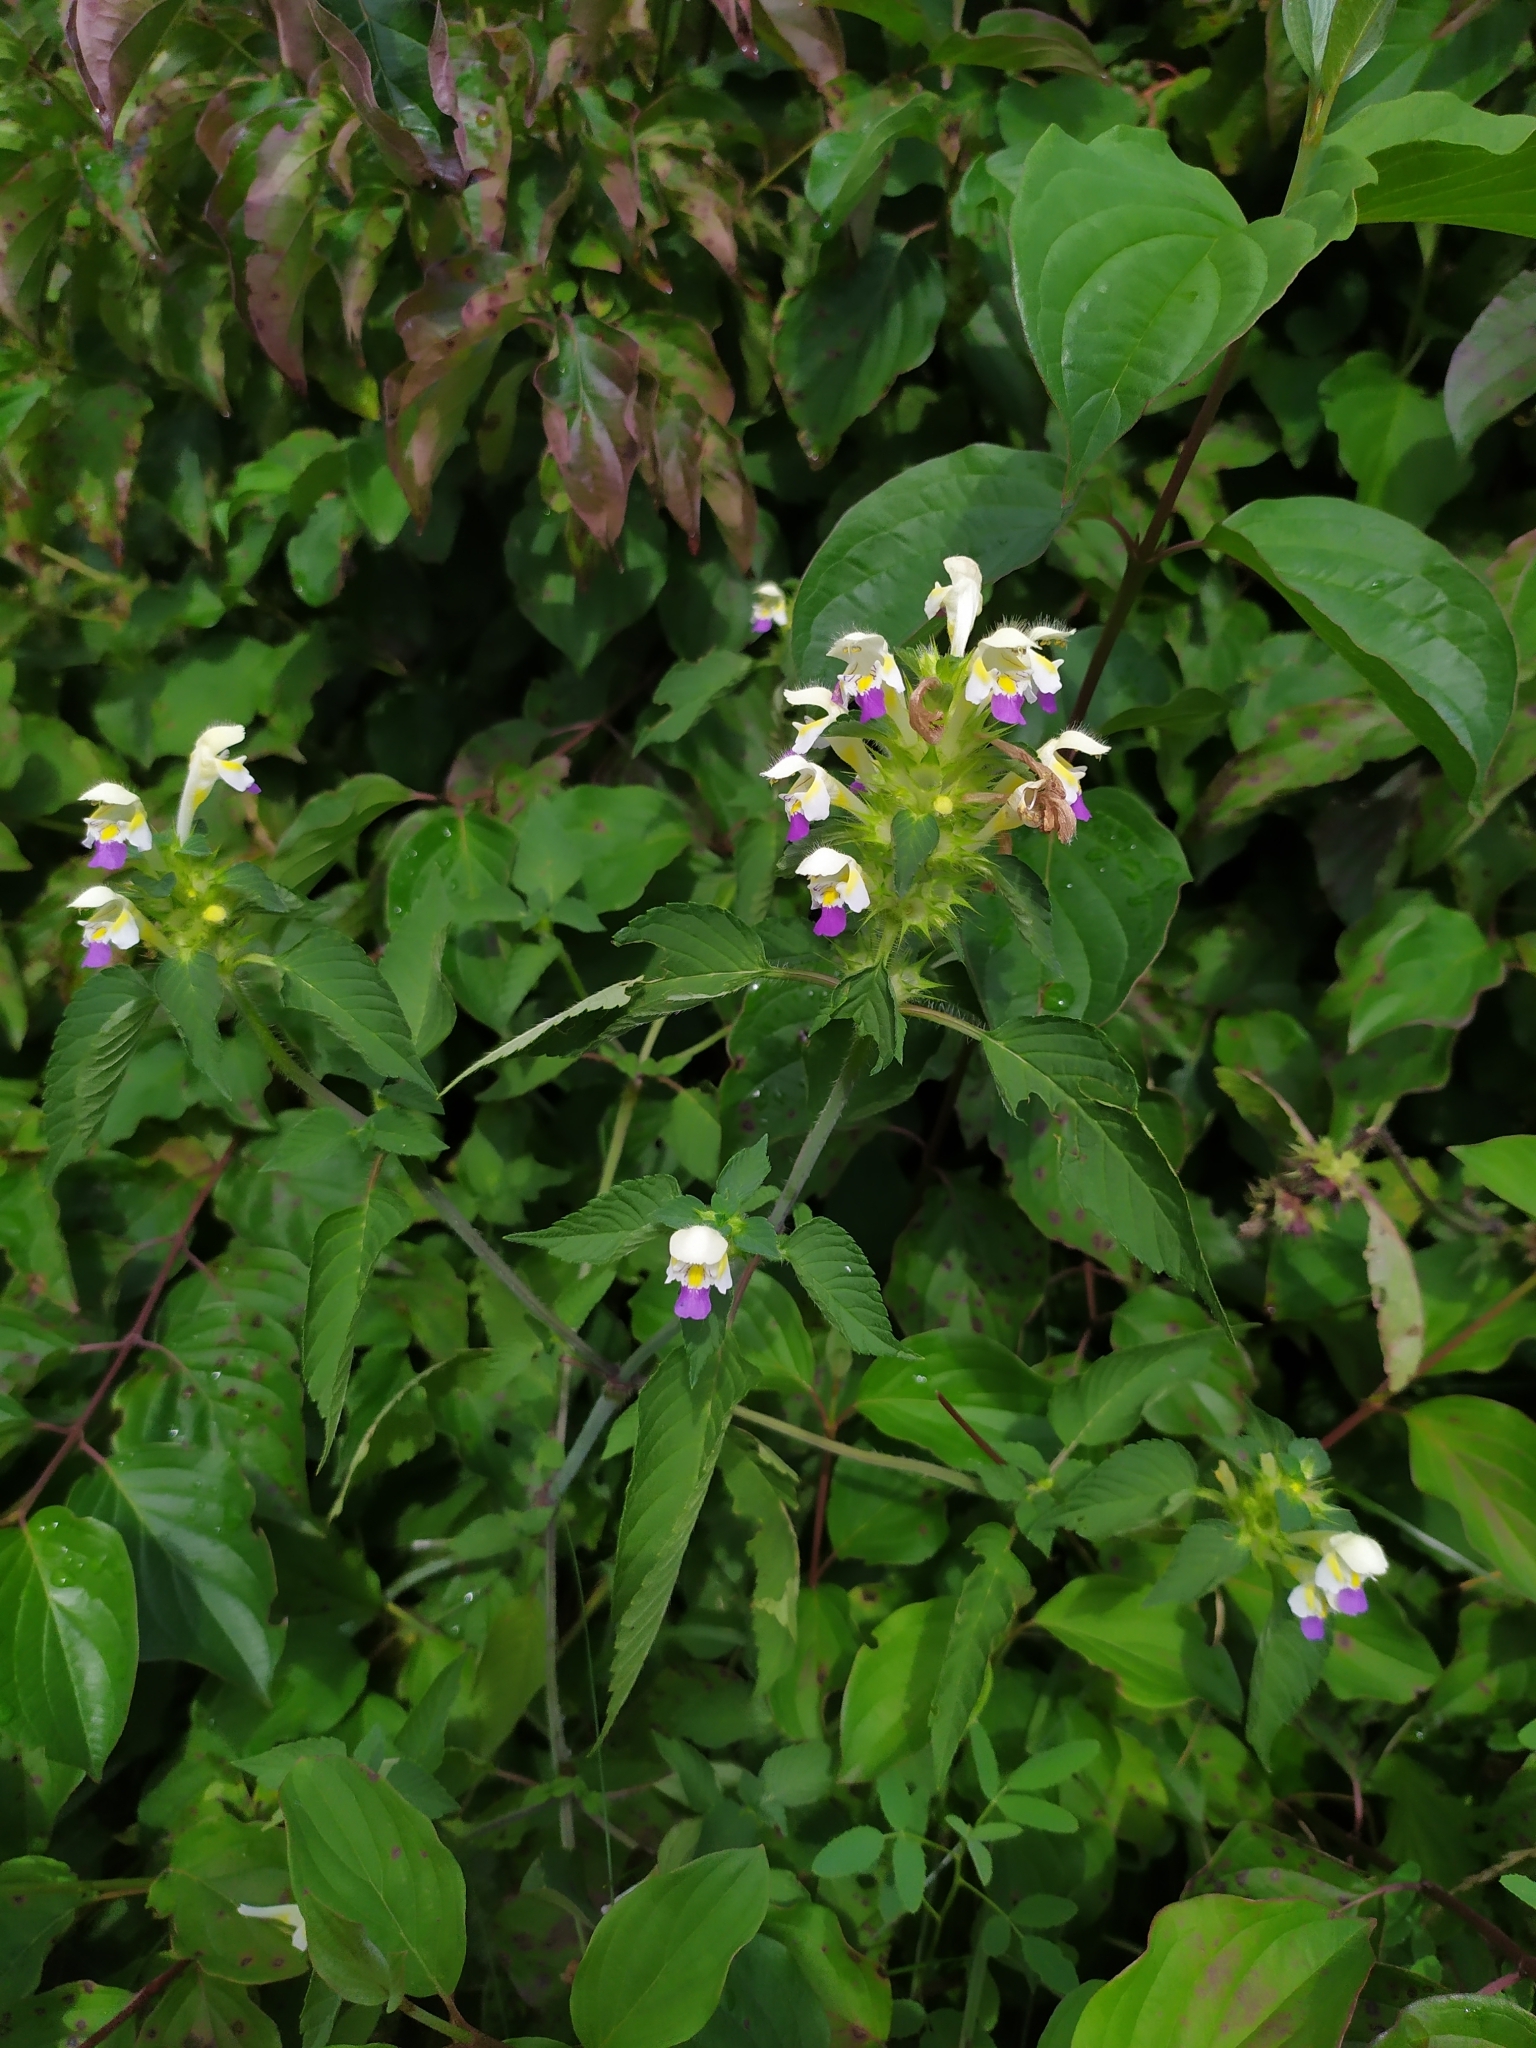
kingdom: Plantae
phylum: Tracheophyta
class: Magnoliopsida
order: Lamiales
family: Lamiaceae
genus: Galeopsis
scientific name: Galeopsis speciosa
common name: Large-flowered hemp-nettle
